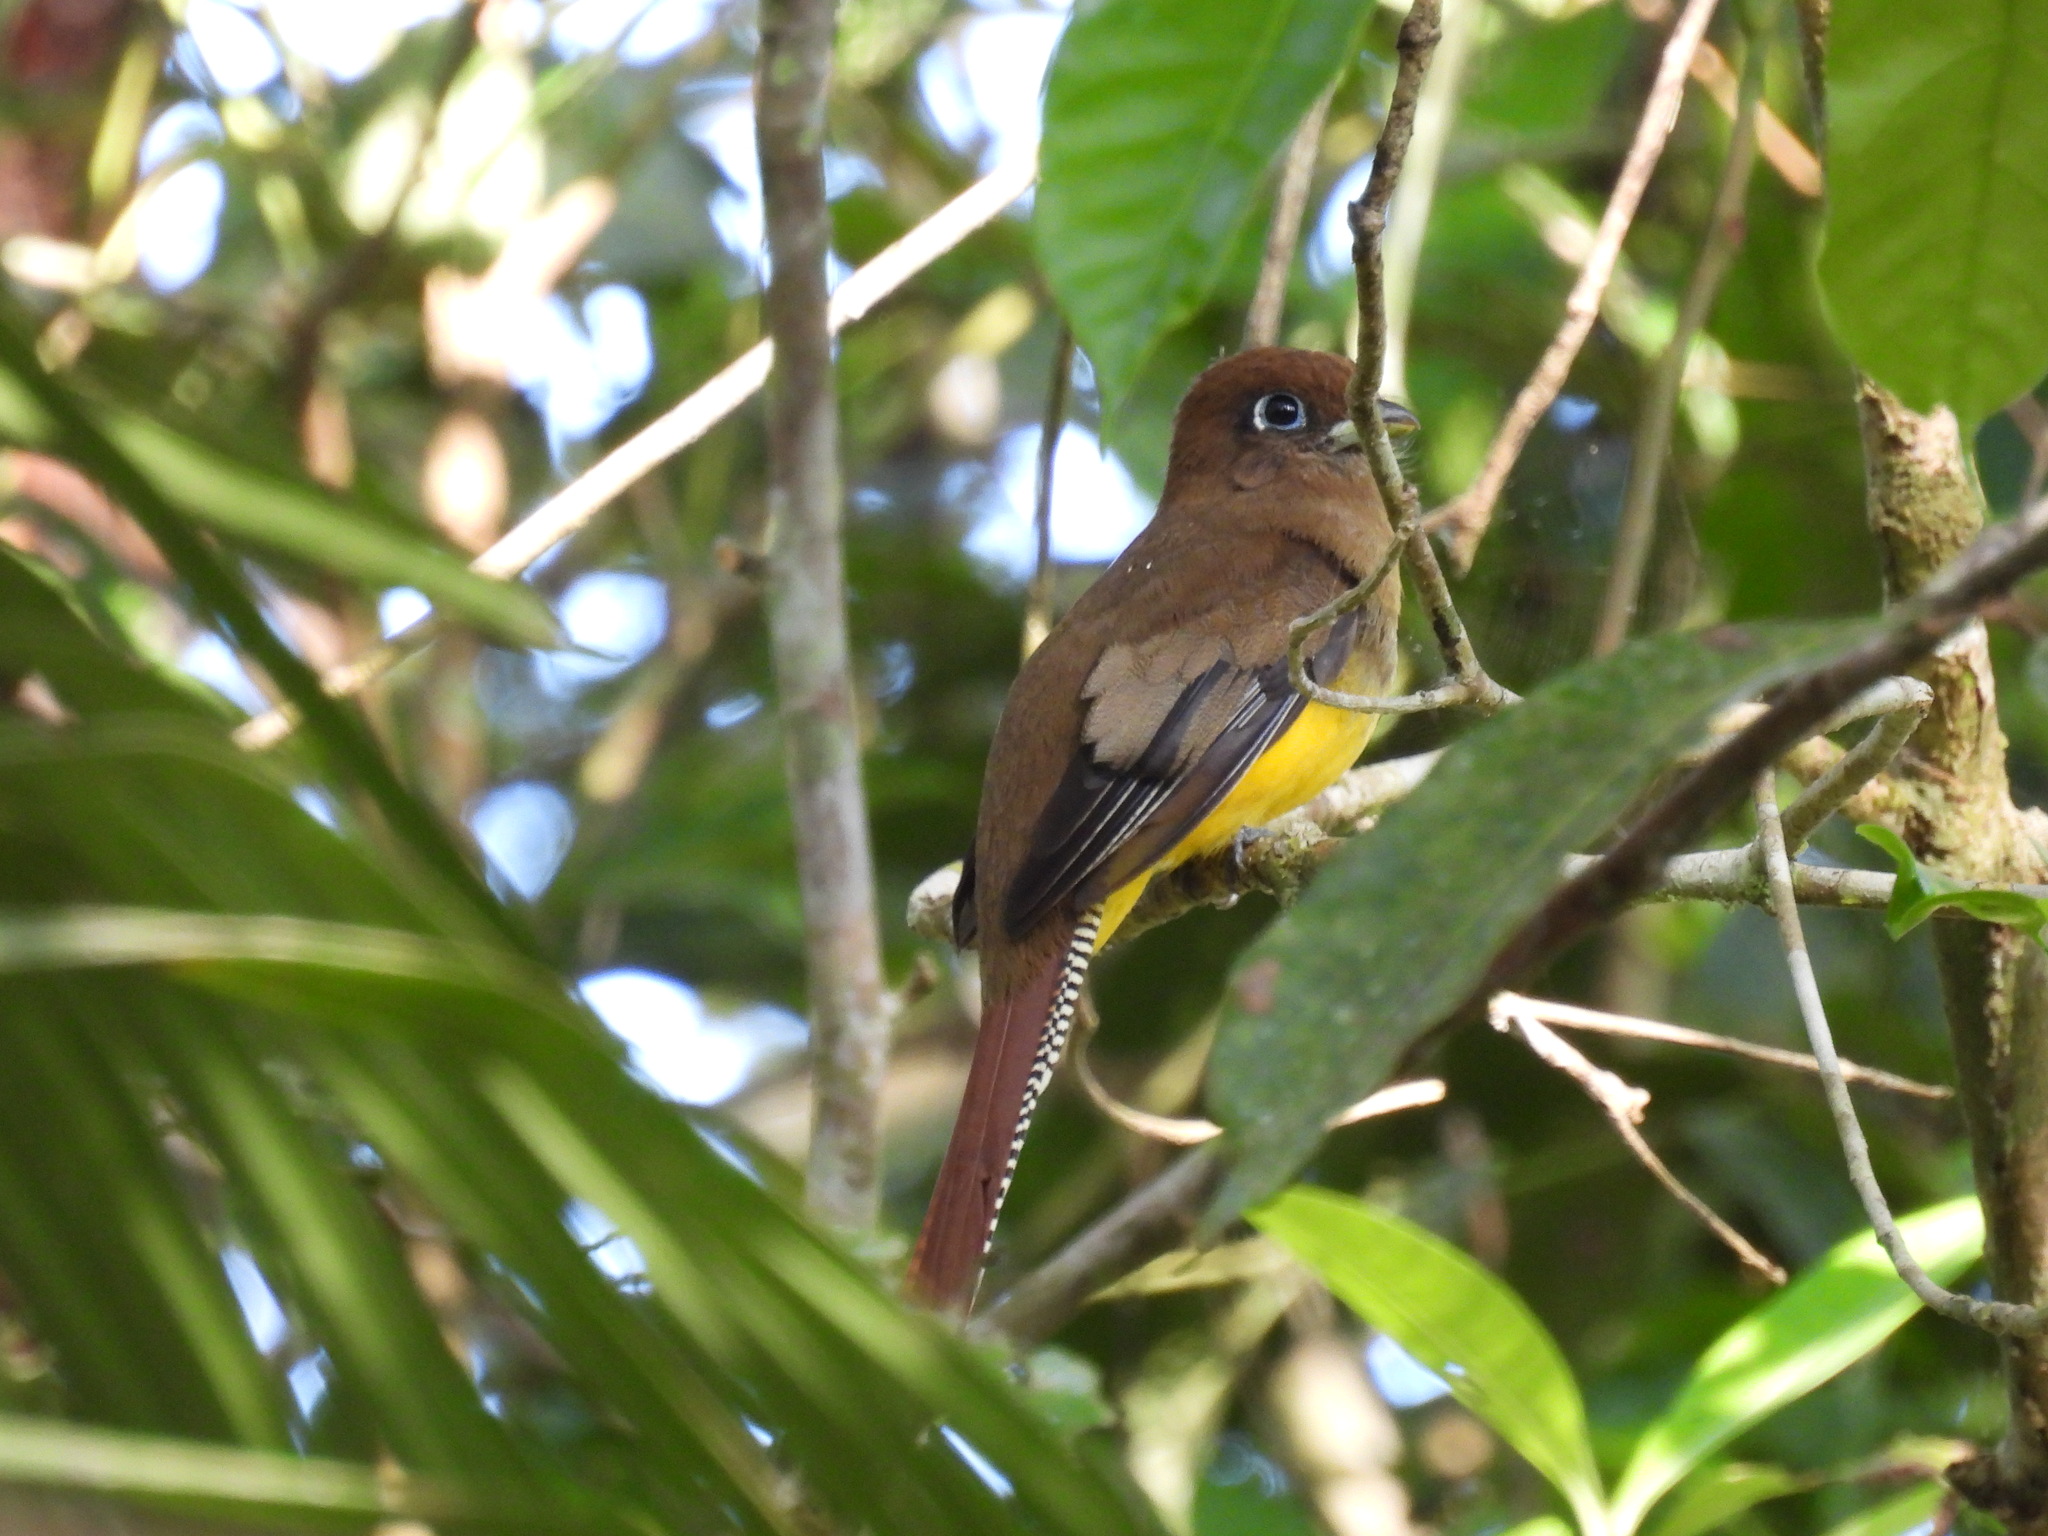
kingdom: Animalia
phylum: Chordata
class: Aves
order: Trogoniformes
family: Trogonidae
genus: Trogon
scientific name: Trogon rufus
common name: Black-throated trogon
